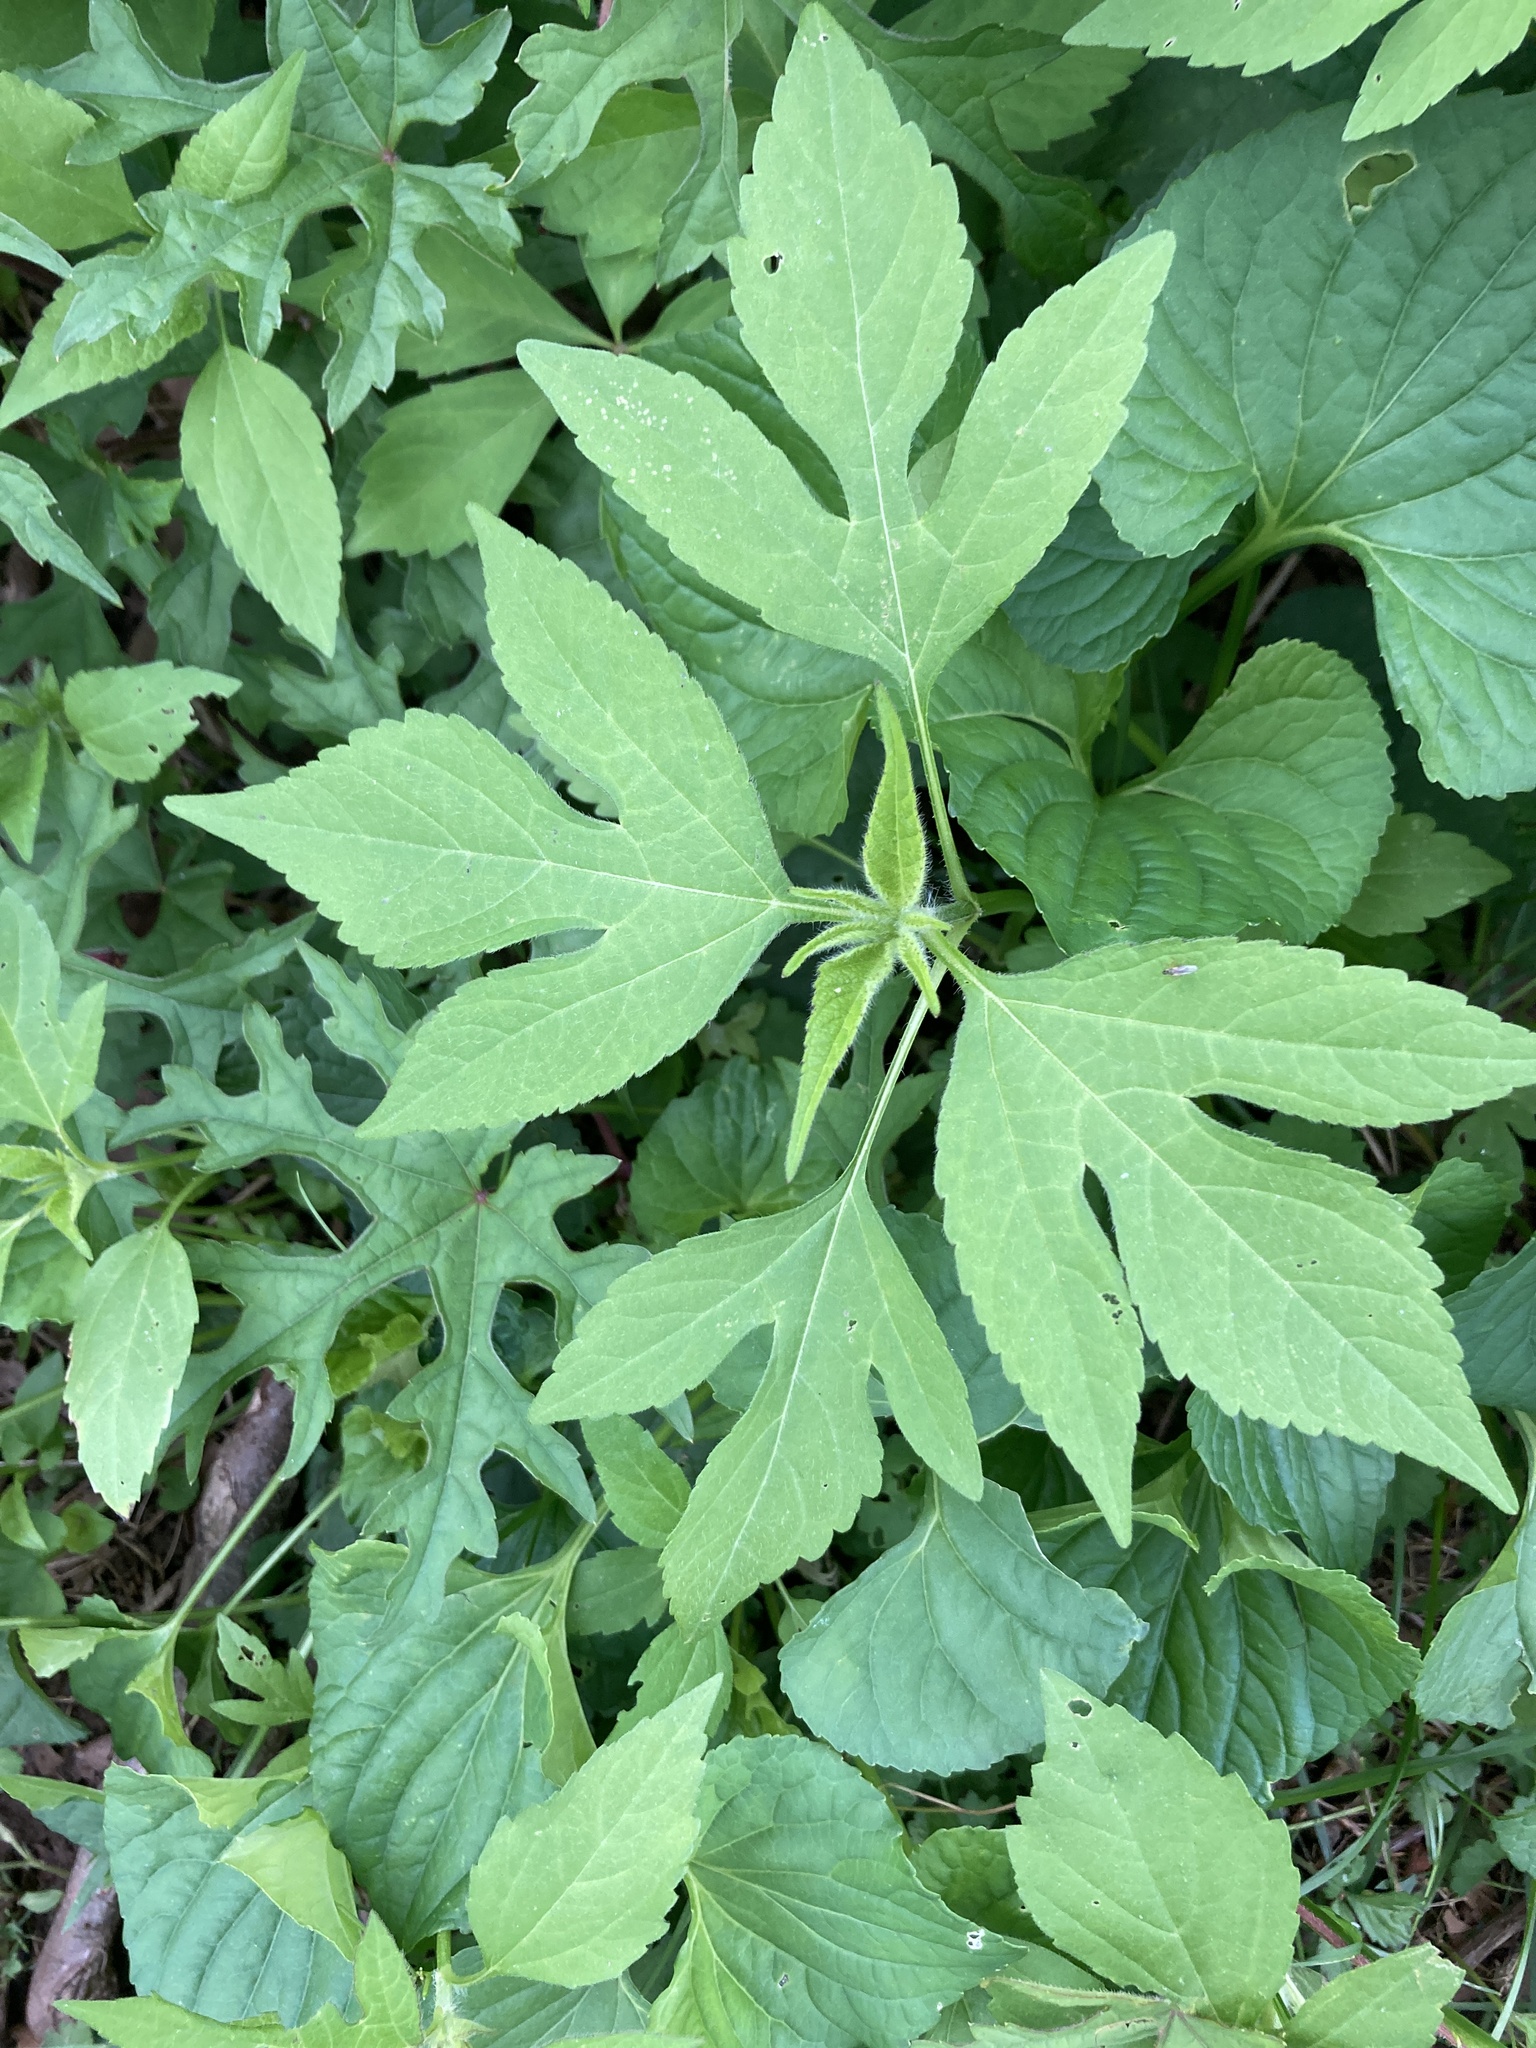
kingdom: Plantae
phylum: Tracheophyta
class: Magnoliopsida
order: Asterales
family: Asteraceae
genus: Ambrosia
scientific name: Ambrosia trifida
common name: Giant ragweed
